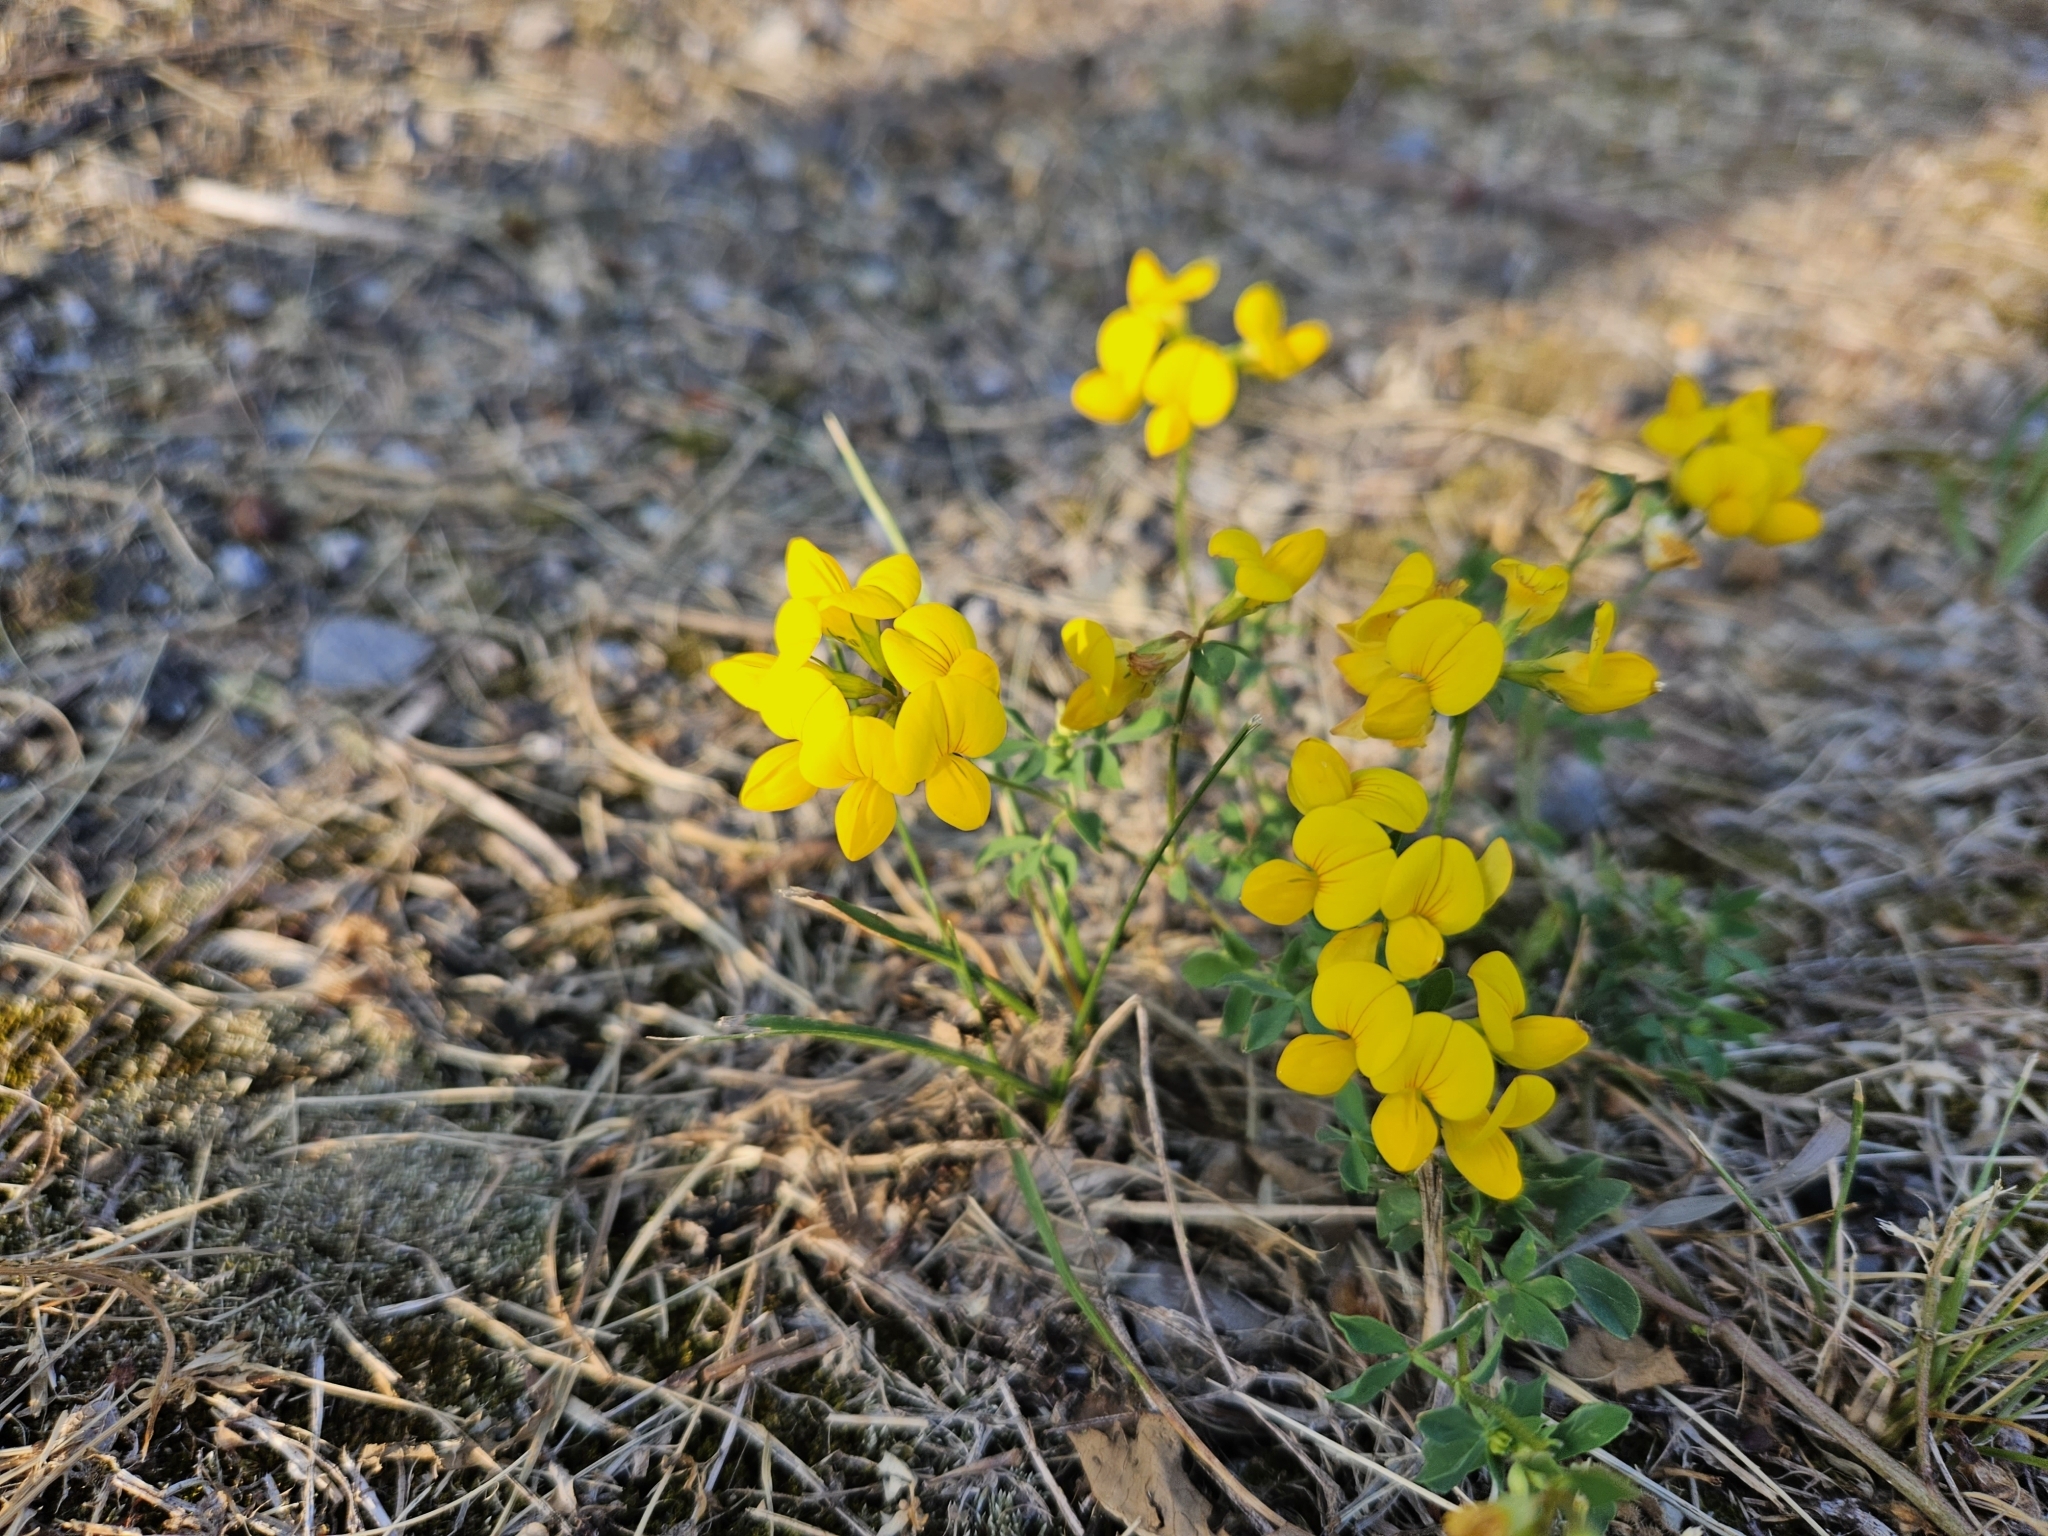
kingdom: Plantae
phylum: Tracheophyta
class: Magnoliopsida
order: Fabales
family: Fabaceae
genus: Lotus
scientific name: Lotus corniculatus
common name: Common bird's-foot-trefoil
